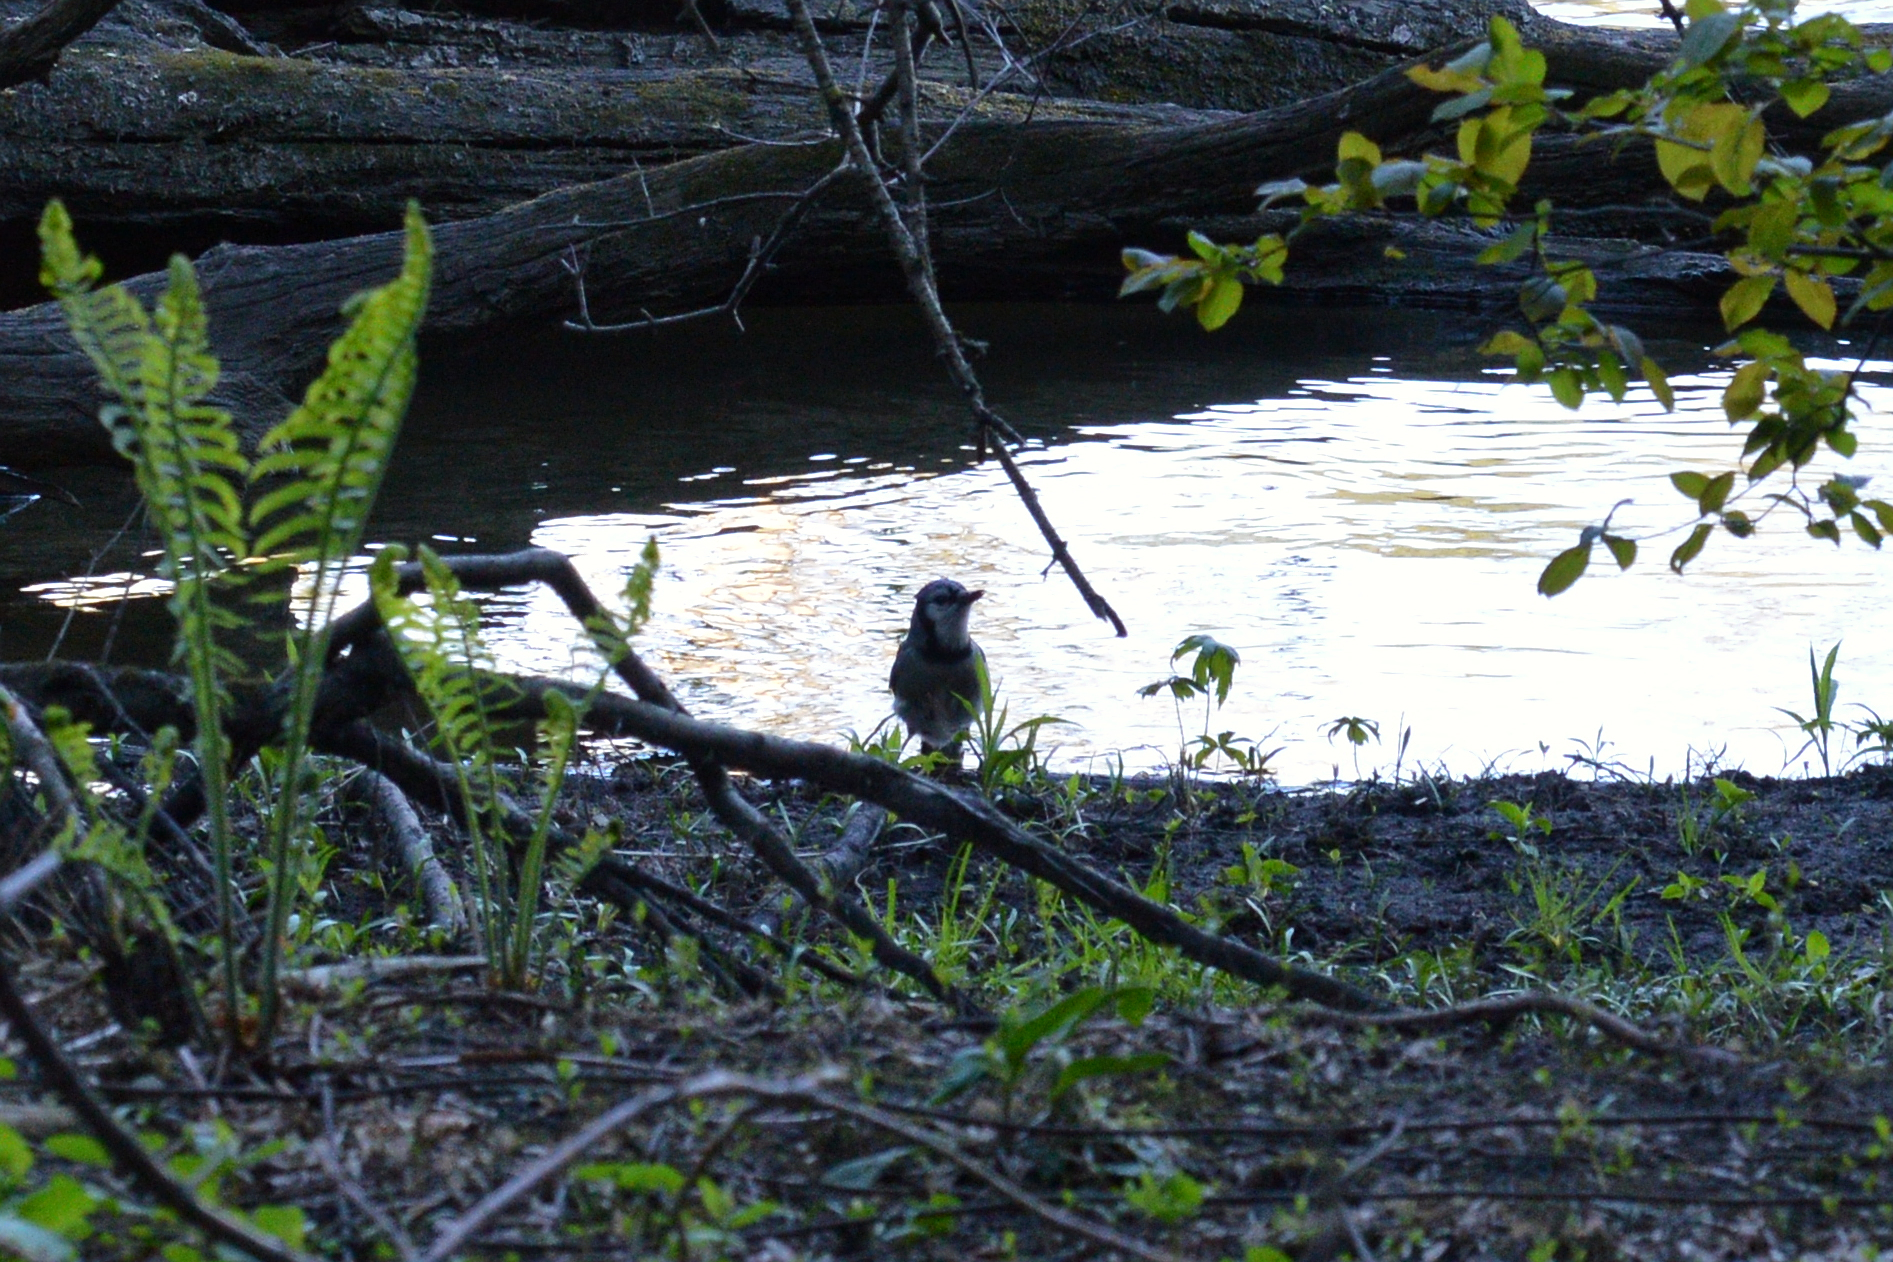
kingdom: Animalia
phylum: Chordata
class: Aves
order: Passeriformes
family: Corvidae
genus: Cyanocitta
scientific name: Cyanocitta cristata
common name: Blue jay
